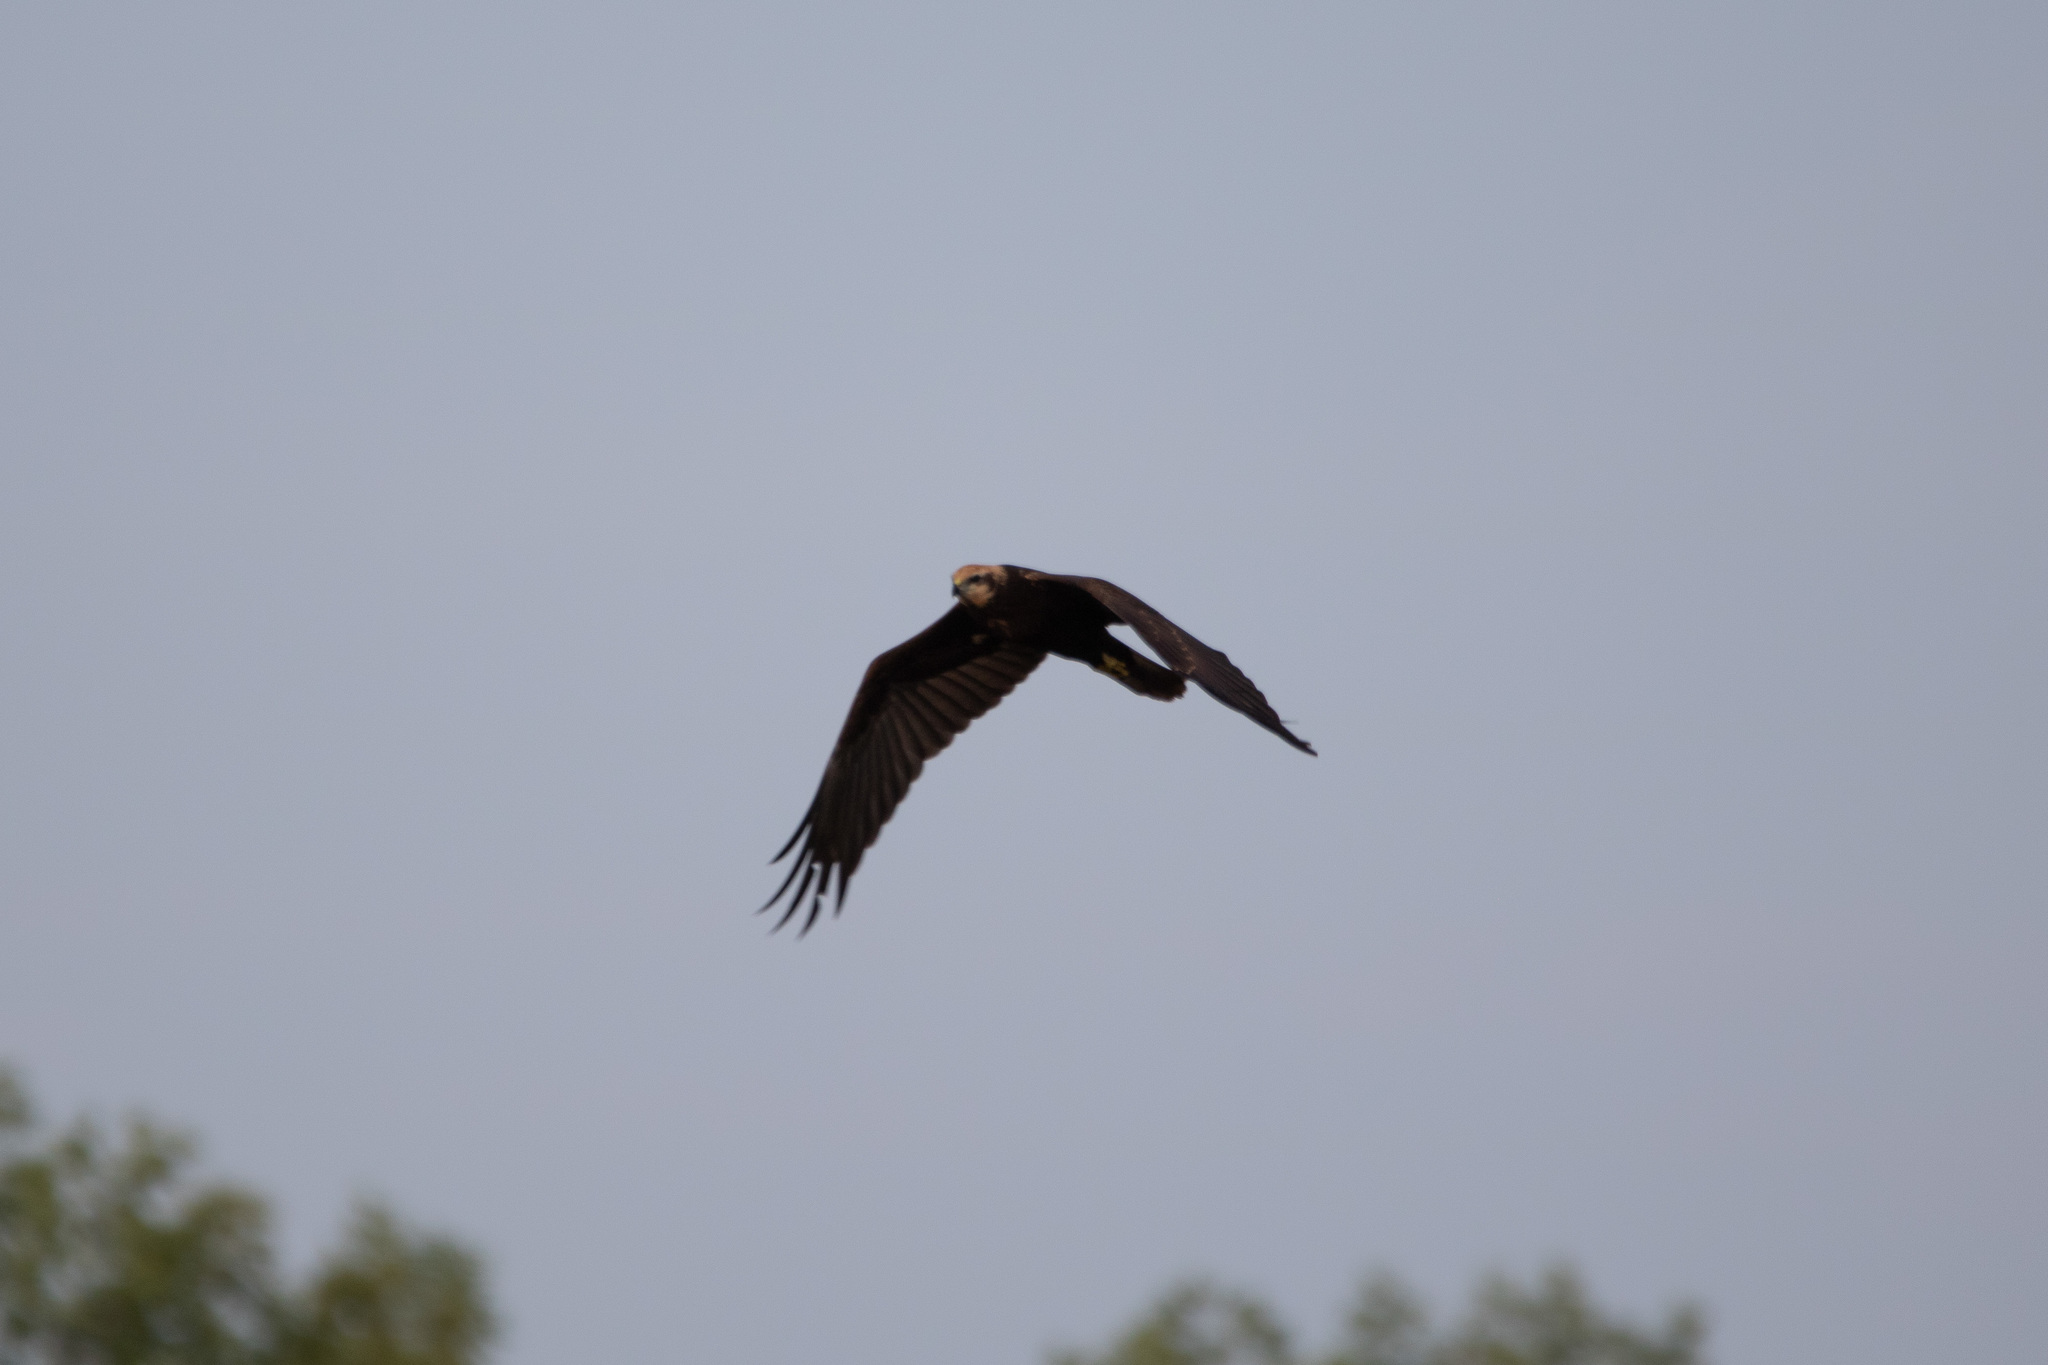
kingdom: Animalia
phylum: Chordata
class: Aves
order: Accipitriformes
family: Accipitridae
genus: Circus
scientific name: Circus aeruginosus
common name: Western marsh harrier
